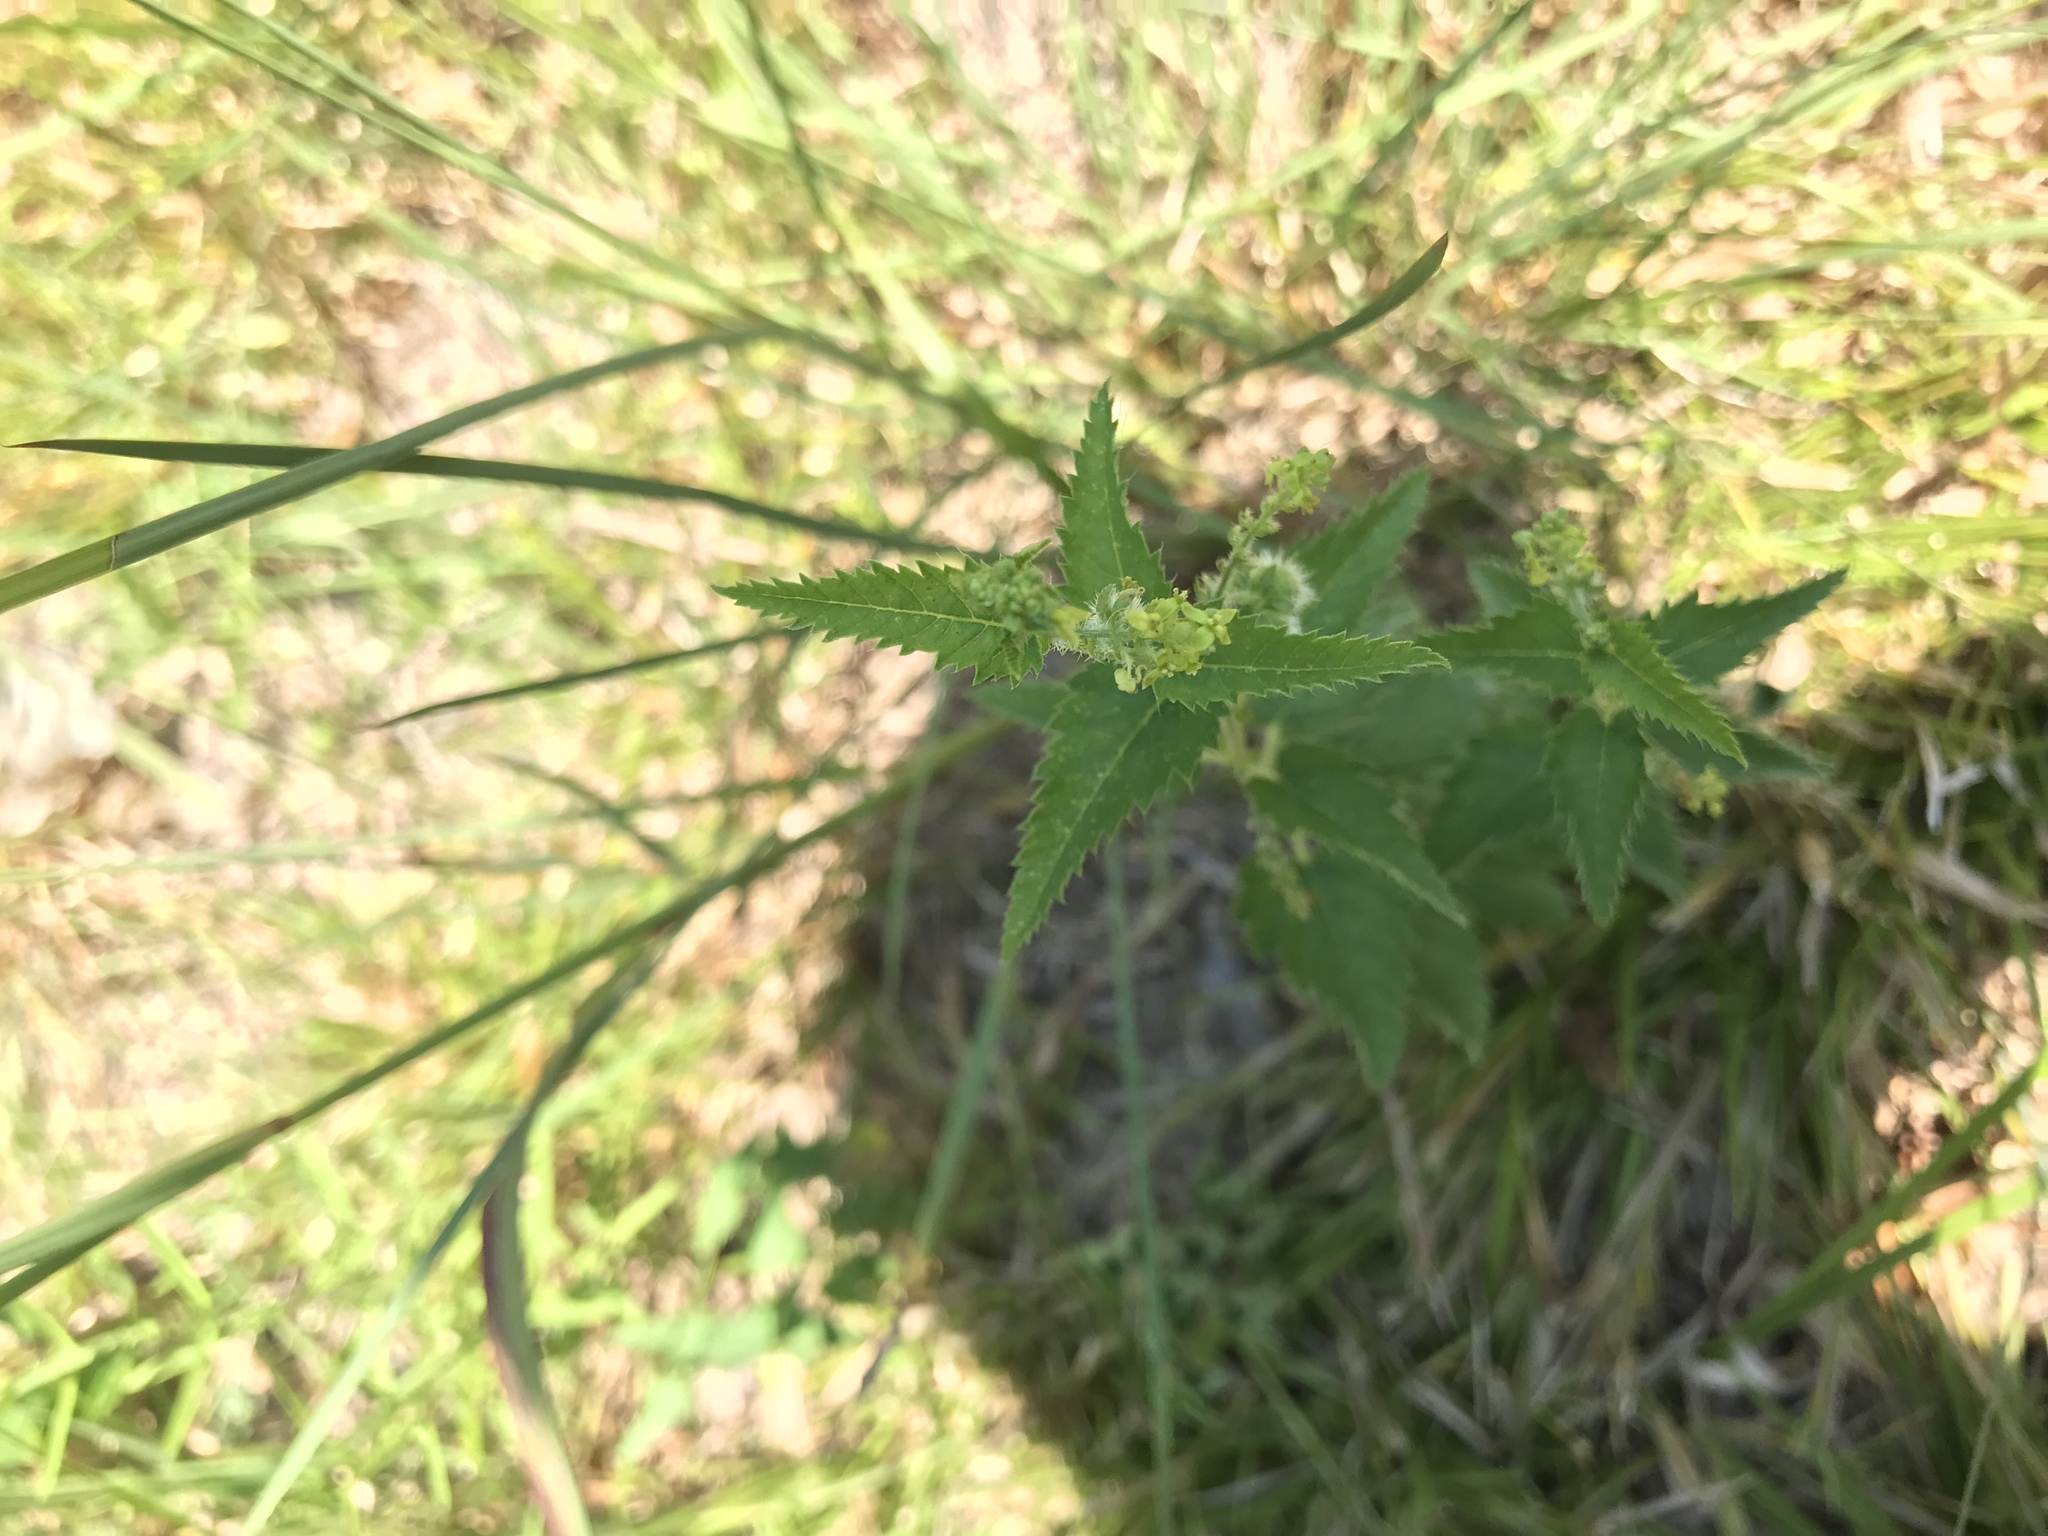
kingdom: Plantae
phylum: Tracheophyta
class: Magnoliopsida
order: Malpighiales
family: Euphorbiaceae
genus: Tragia
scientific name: Tragia urticifolia
